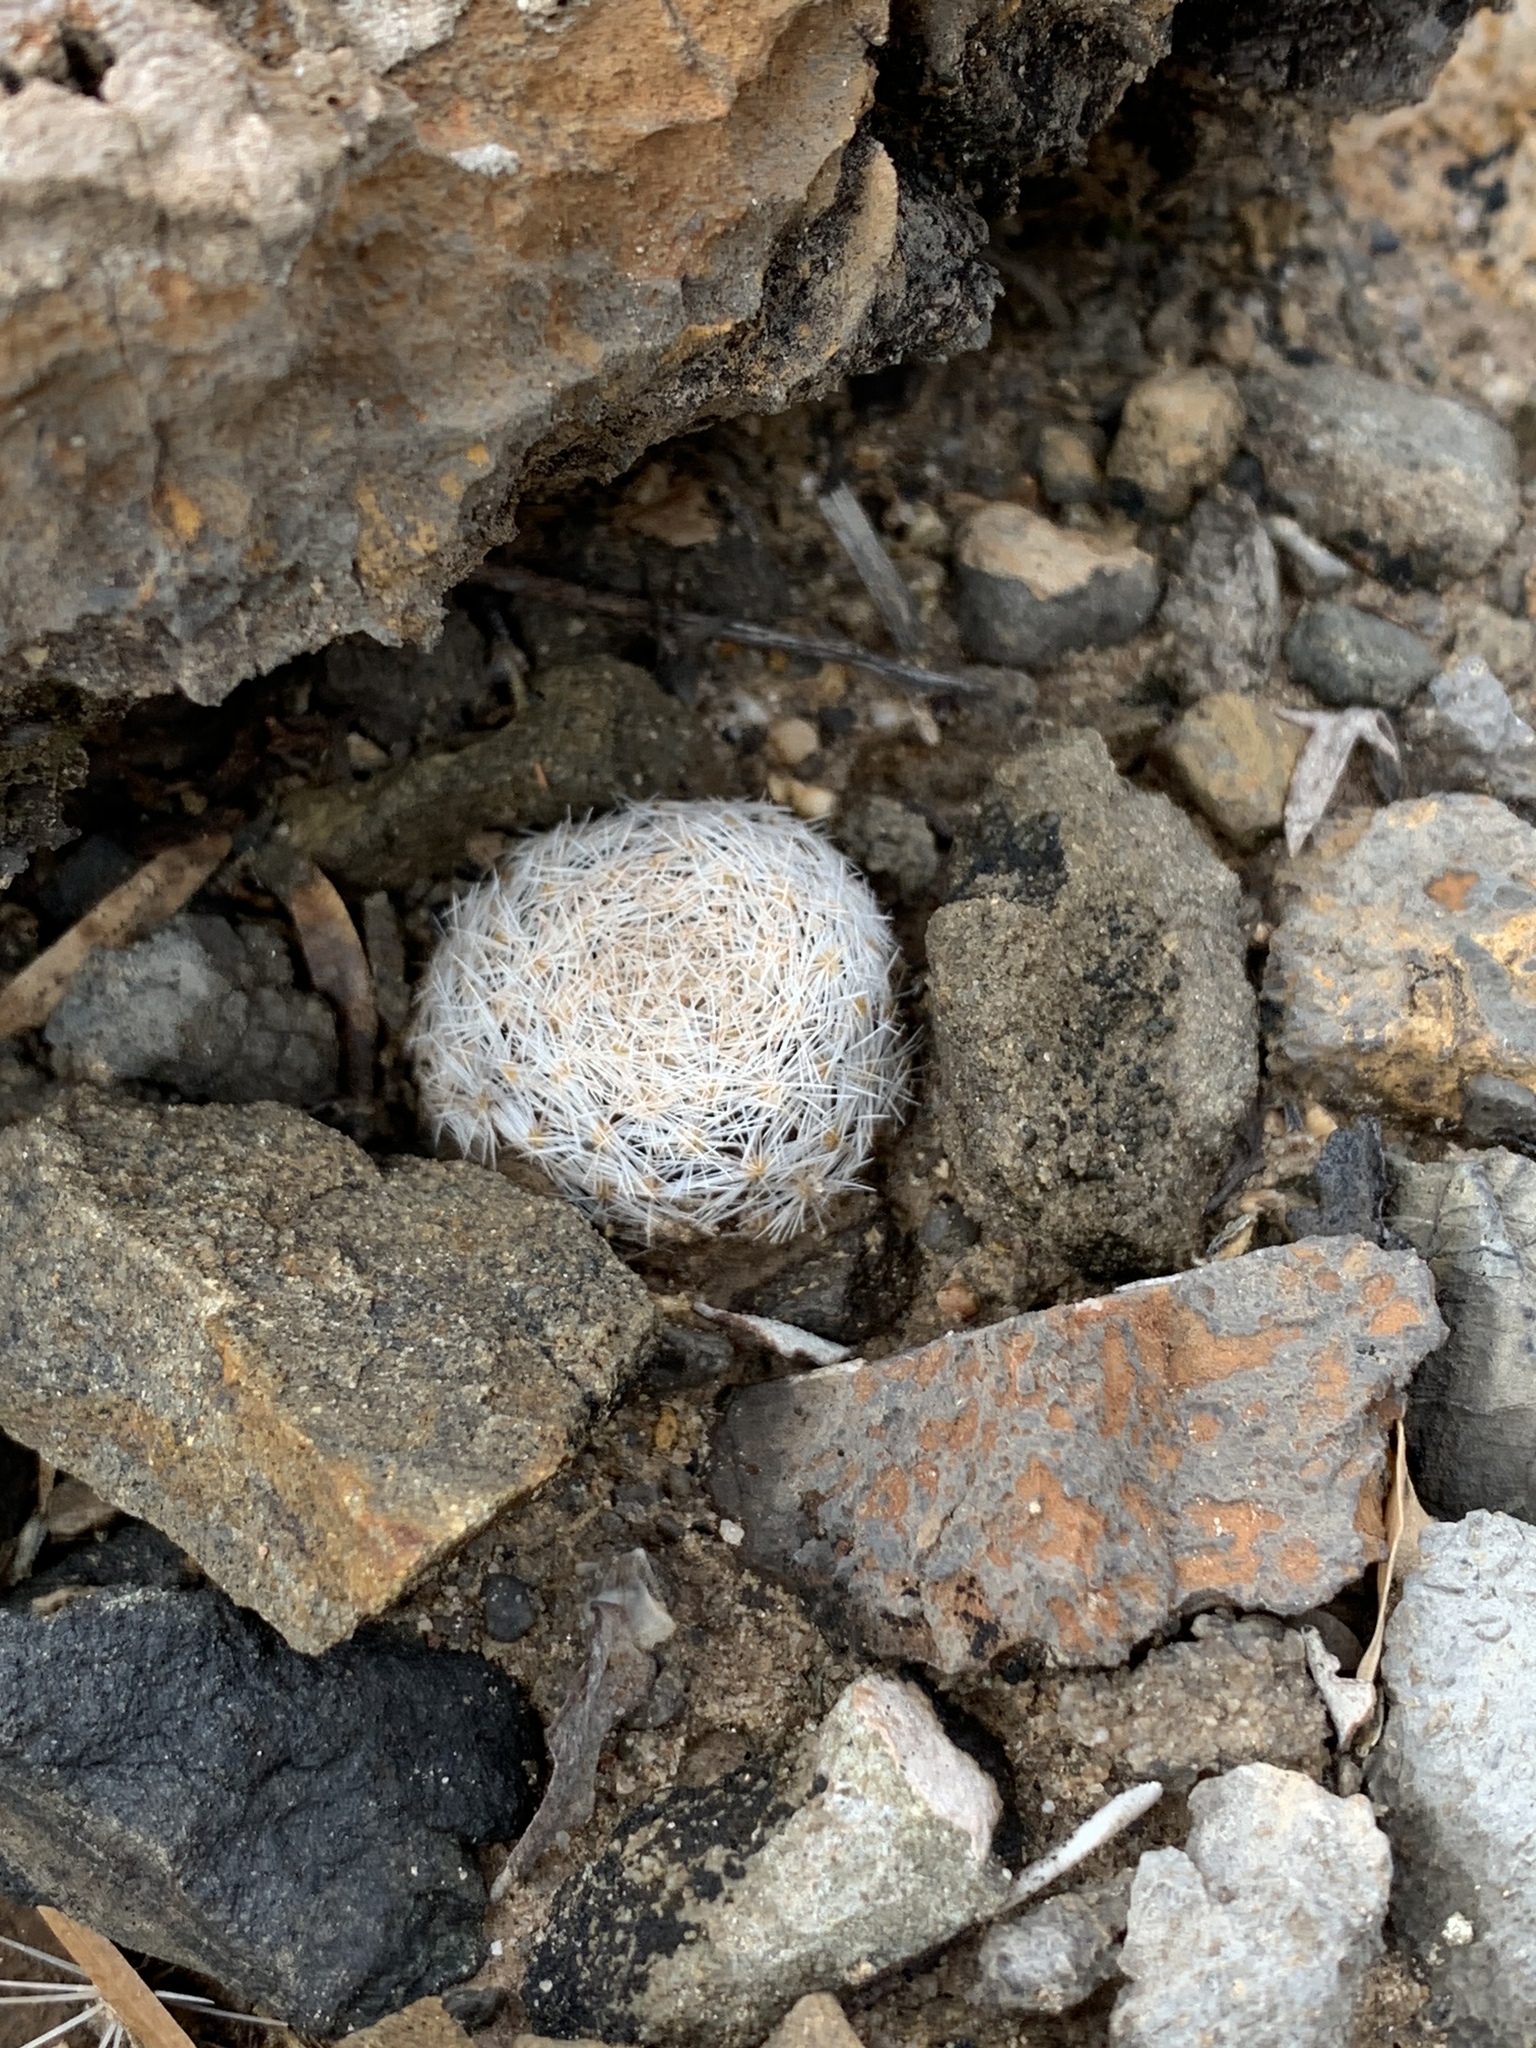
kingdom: Plantae
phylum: Tracheophyta
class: Magnoliopsida
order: Caryophyllales
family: Cactaceae
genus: Mammillaria
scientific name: Mammillaria lasiacantha
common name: Lace-spine nipple cactus
